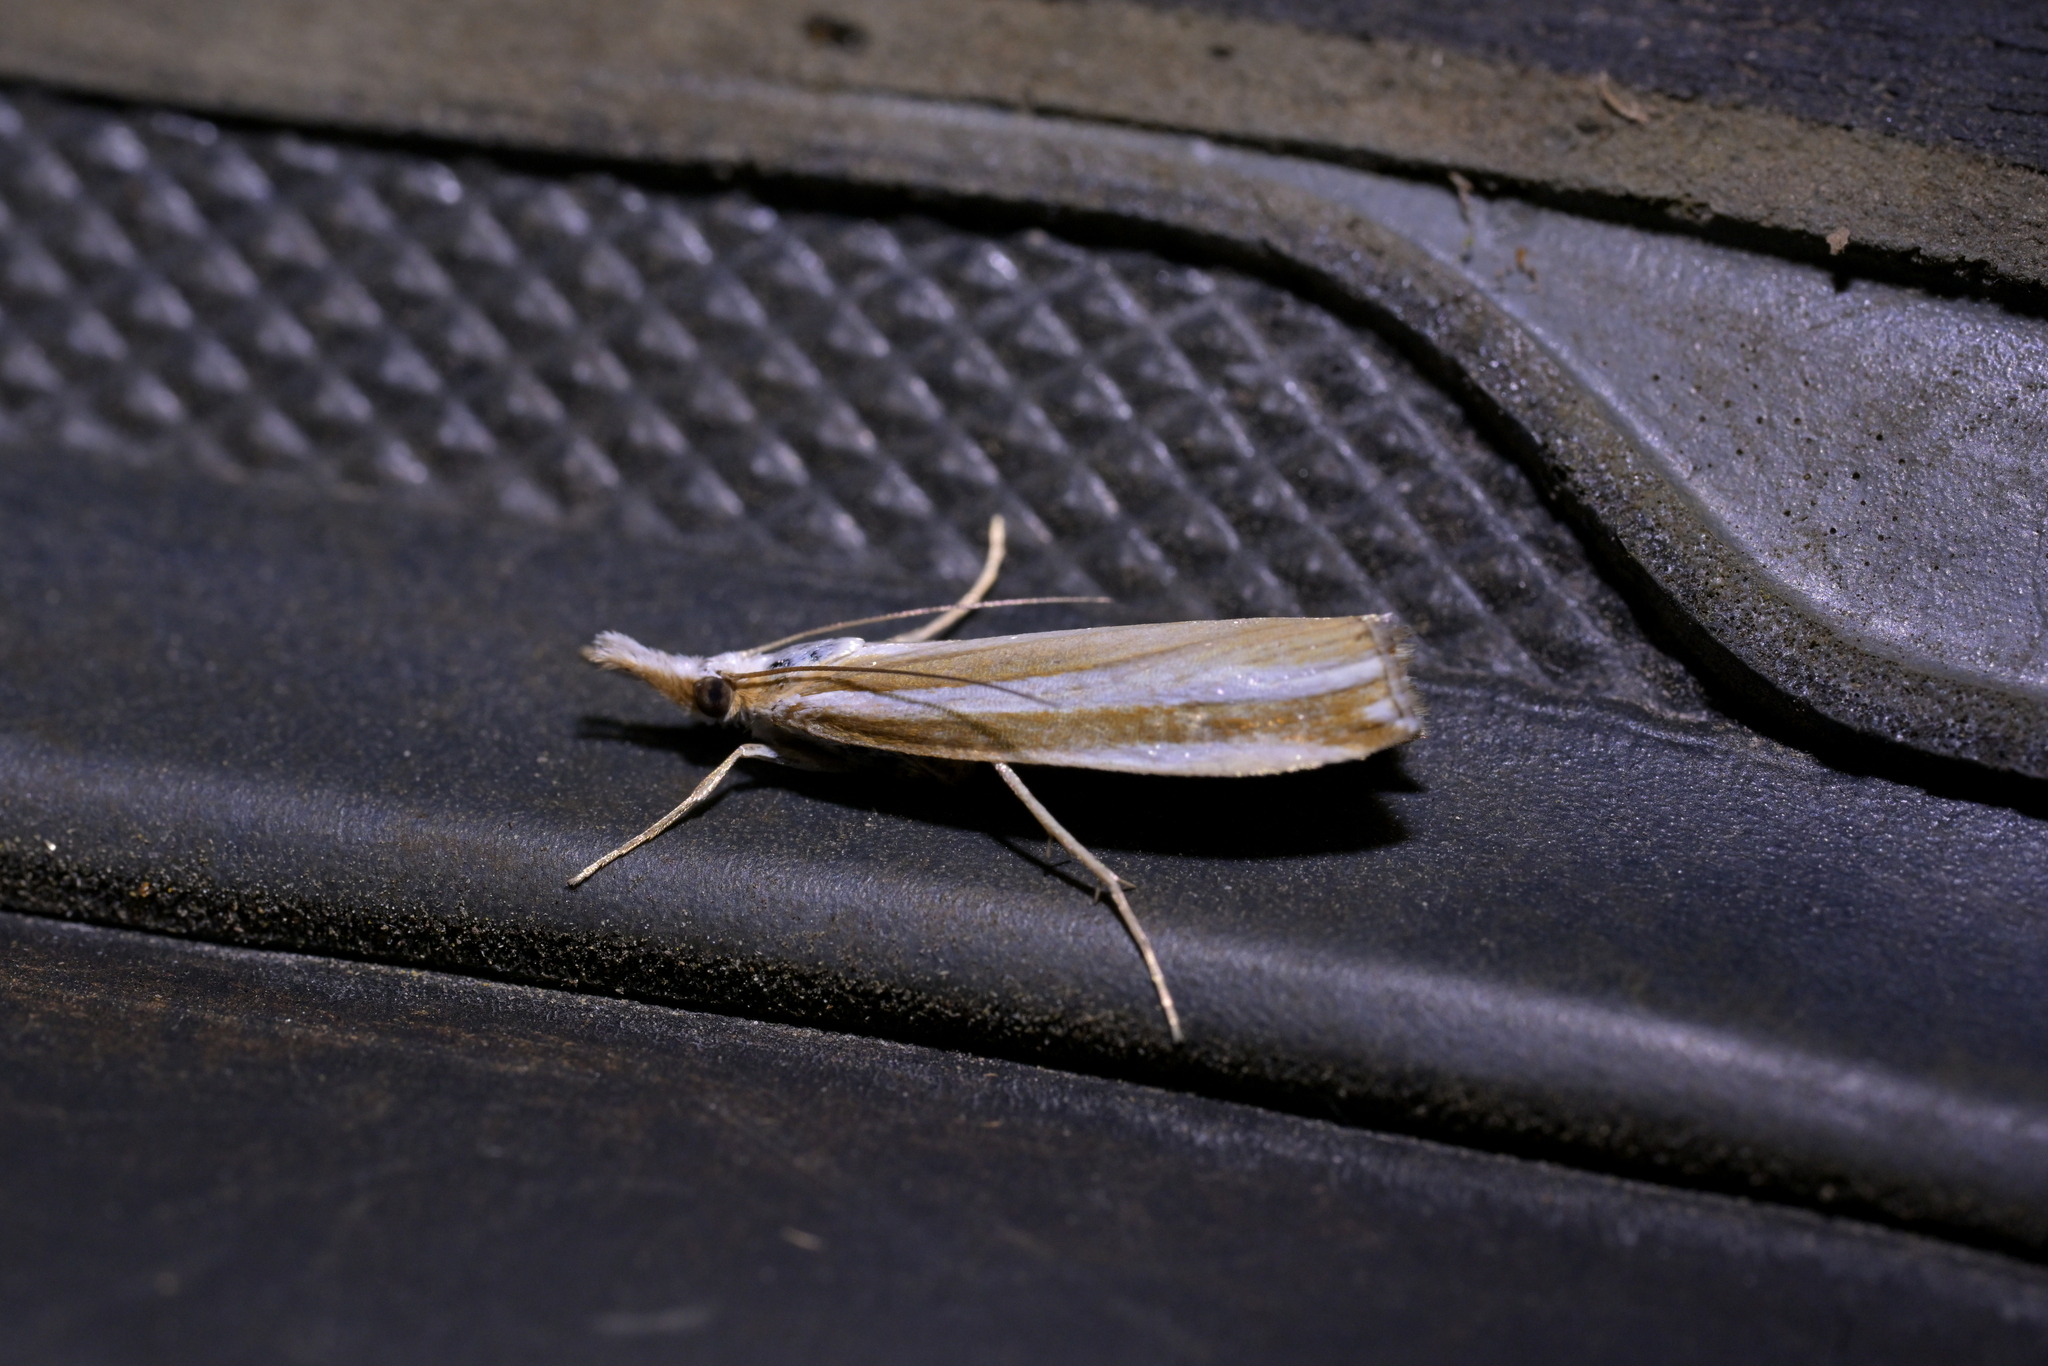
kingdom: Animalia
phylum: Arthropoda
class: Insecta
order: Lepidoptera
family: Crambidae
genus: Orocrambus
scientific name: Orocrambus apicellus
